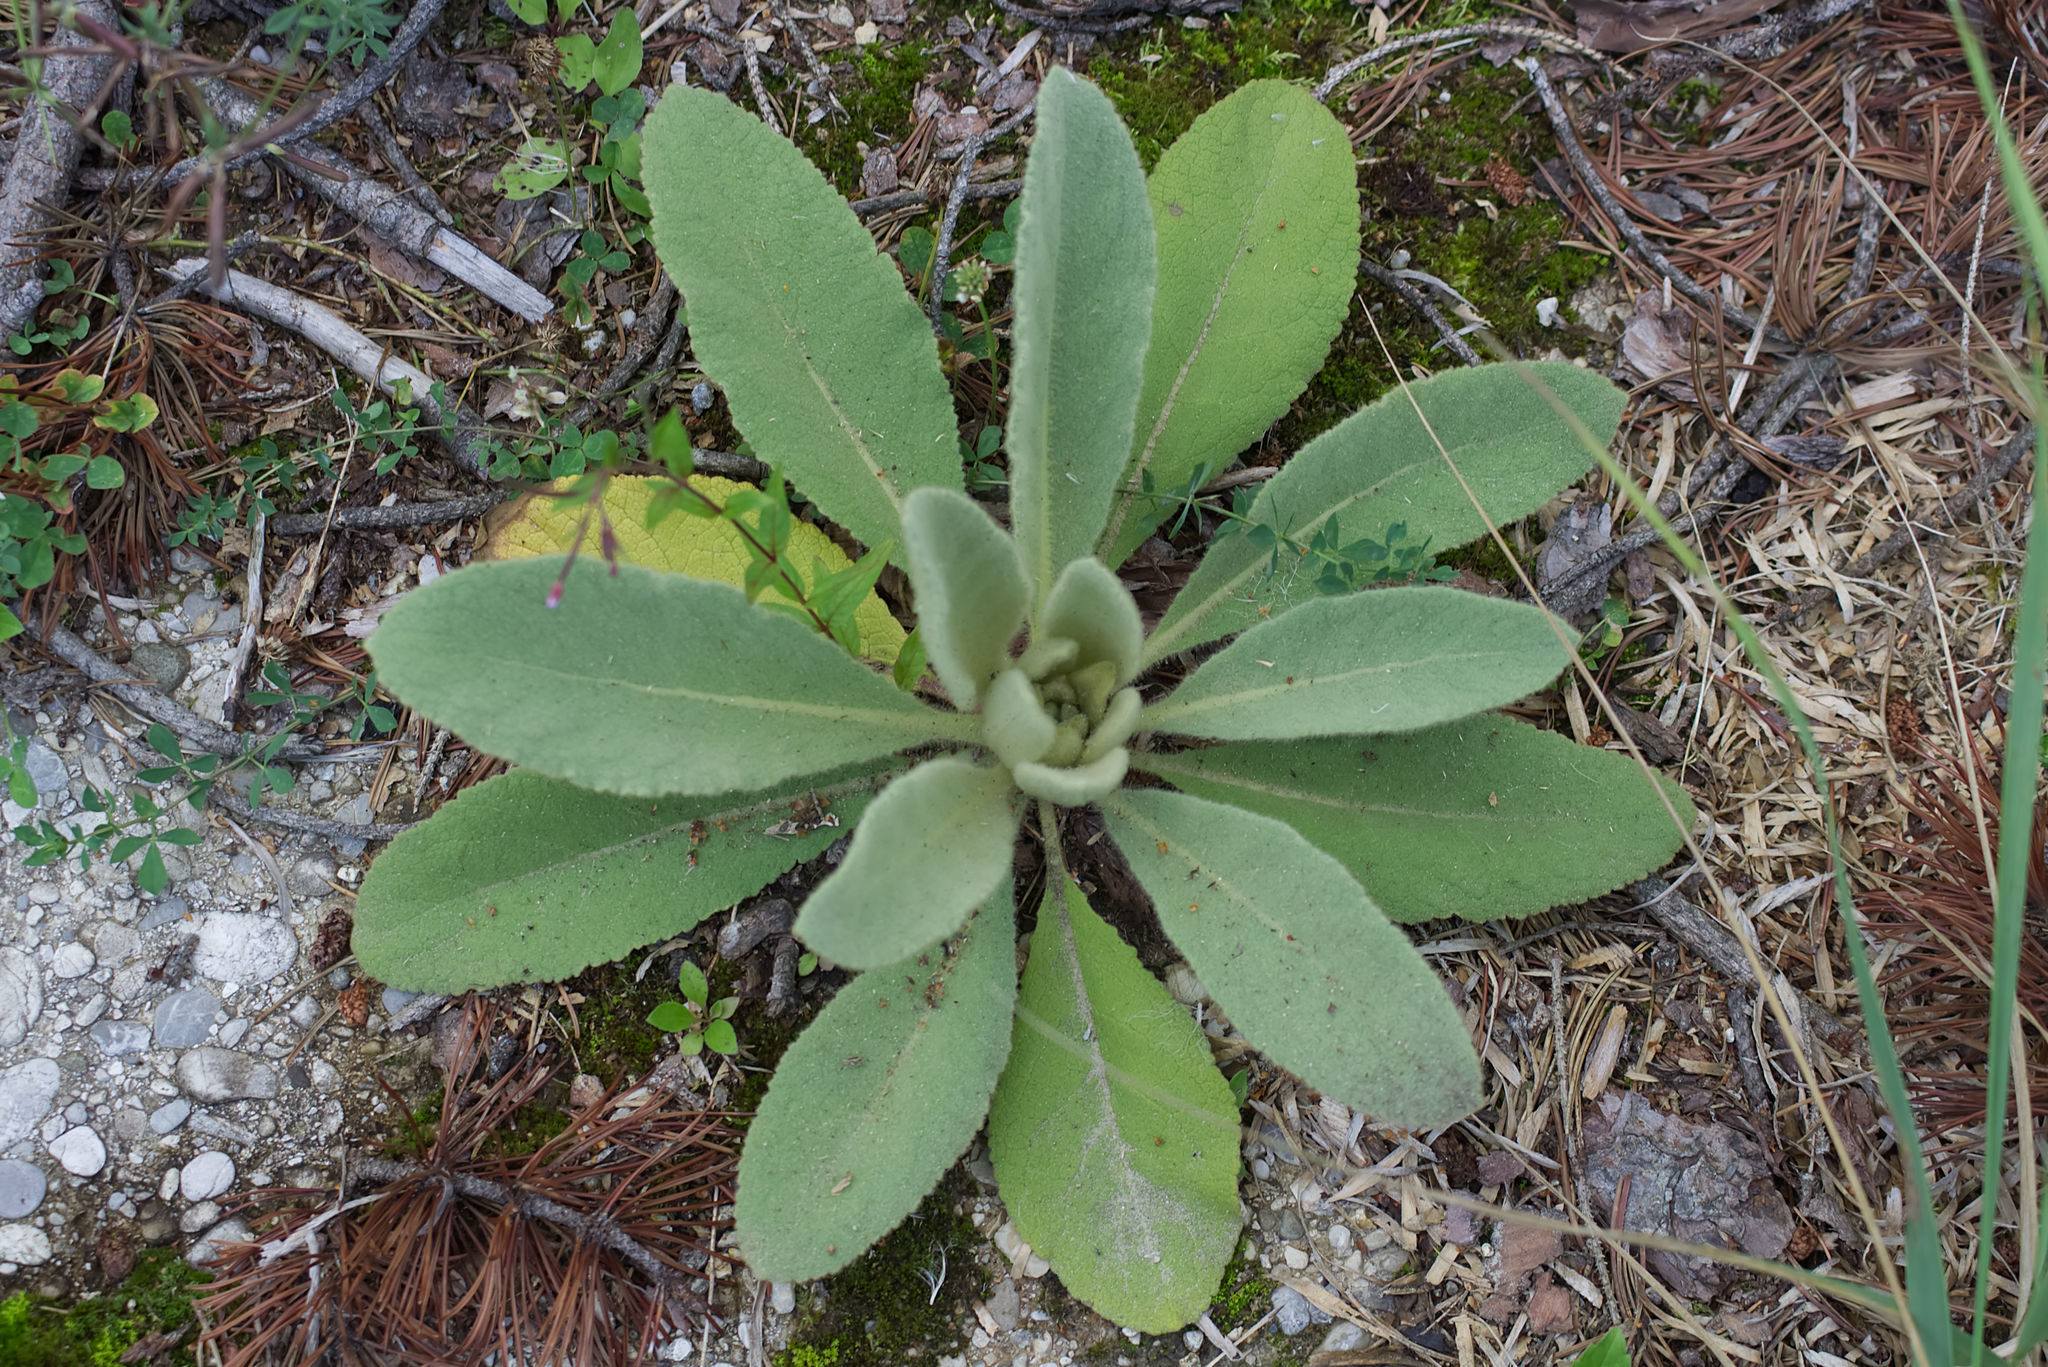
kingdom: Plantae
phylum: Tracheophyta
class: Magnoliopsida
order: Lamiales
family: Scrophulariaceae
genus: Verbascum
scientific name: Verbascum thapsus
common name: Common mullein
